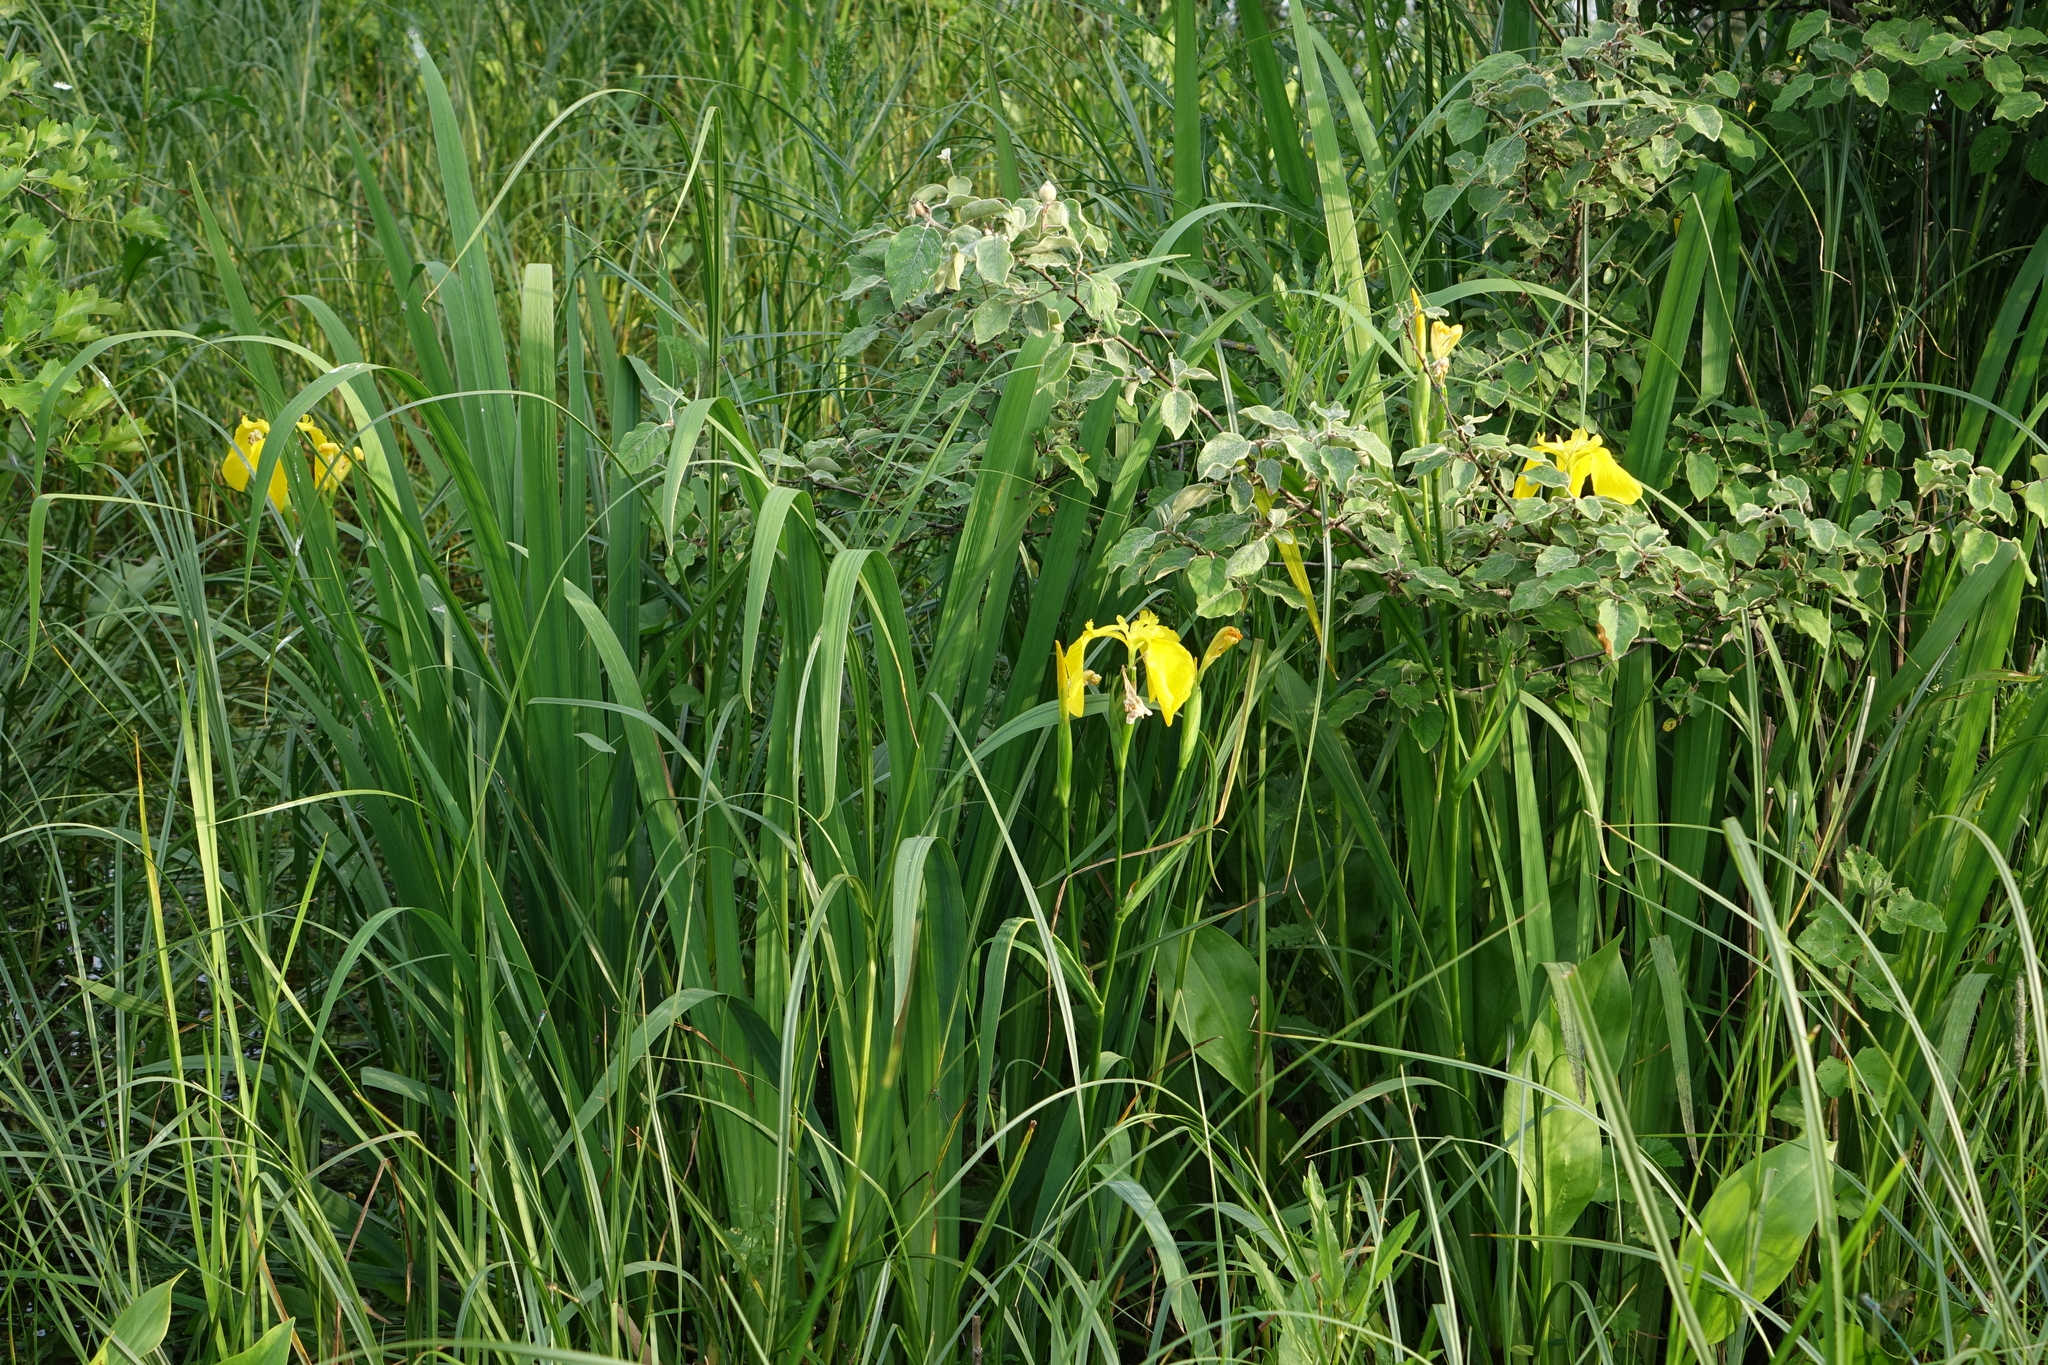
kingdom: Plantae
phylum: Tracheophyta
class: Liliopsida
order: Asparagales
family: Iridaceae
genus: Iris
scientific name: Iris pseudacorus
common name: Yellow flag
